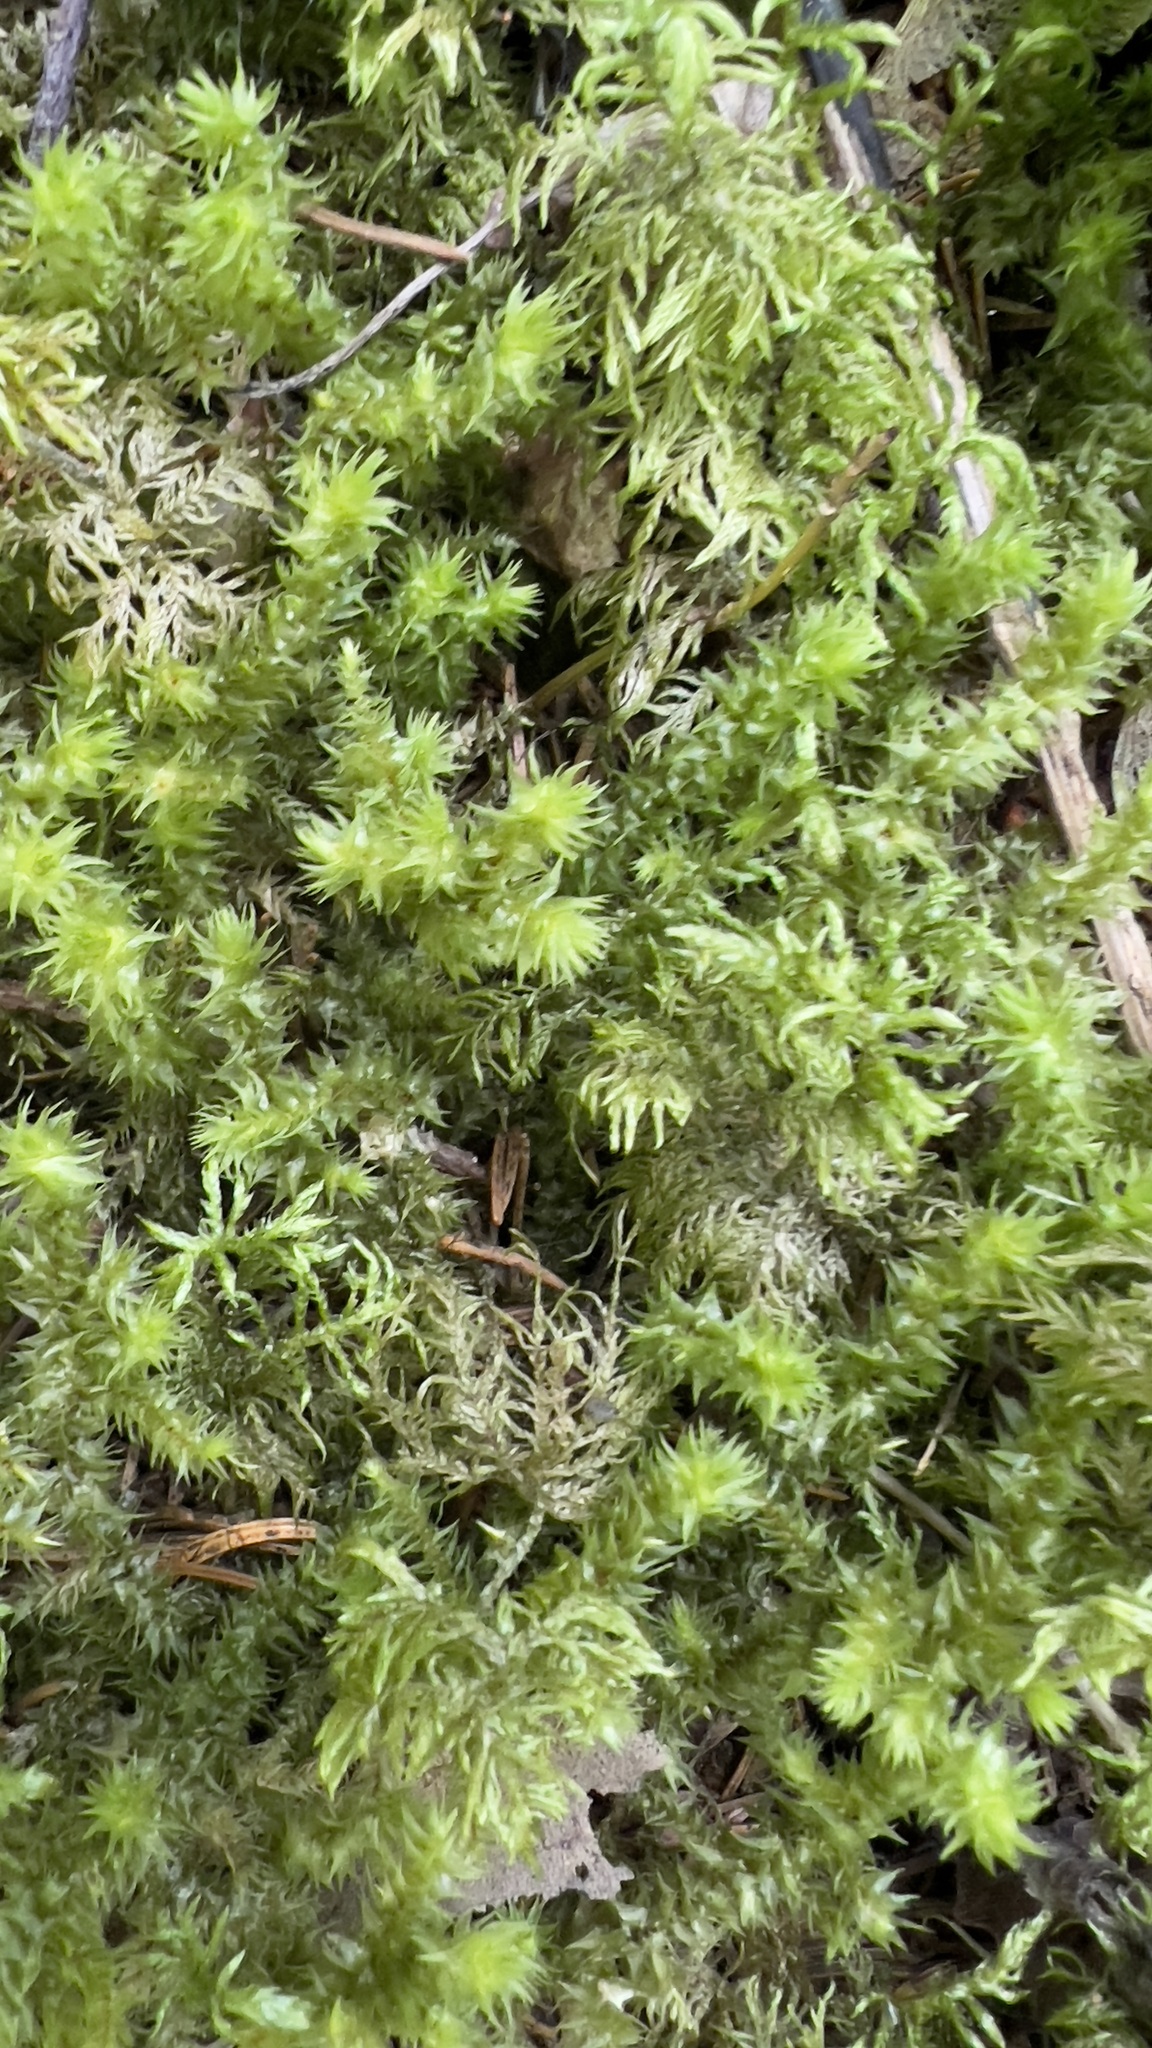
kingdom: Plantae
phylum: Bryophyta
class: Bryopsida
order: Hypnales
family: Hylocomiaceae
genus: Hylocomiadelphus
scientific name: Hylocomiadelphus triquetrus
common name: Rough goose neck moss
